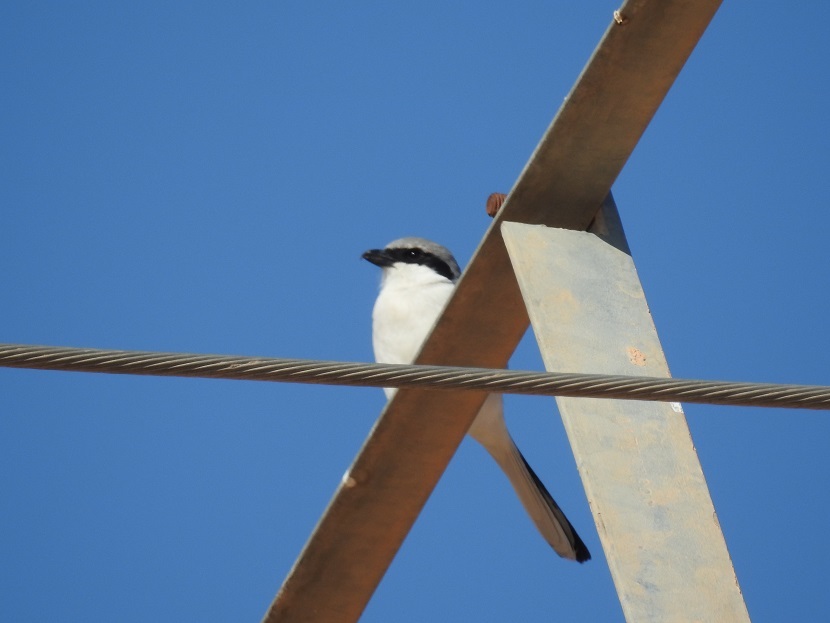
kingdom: Animalia
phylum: Chordata
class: Aves
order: Passeriformes
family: Laniidae
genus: Lanius
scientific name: Lanius excubitor
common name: Great grey shrike
